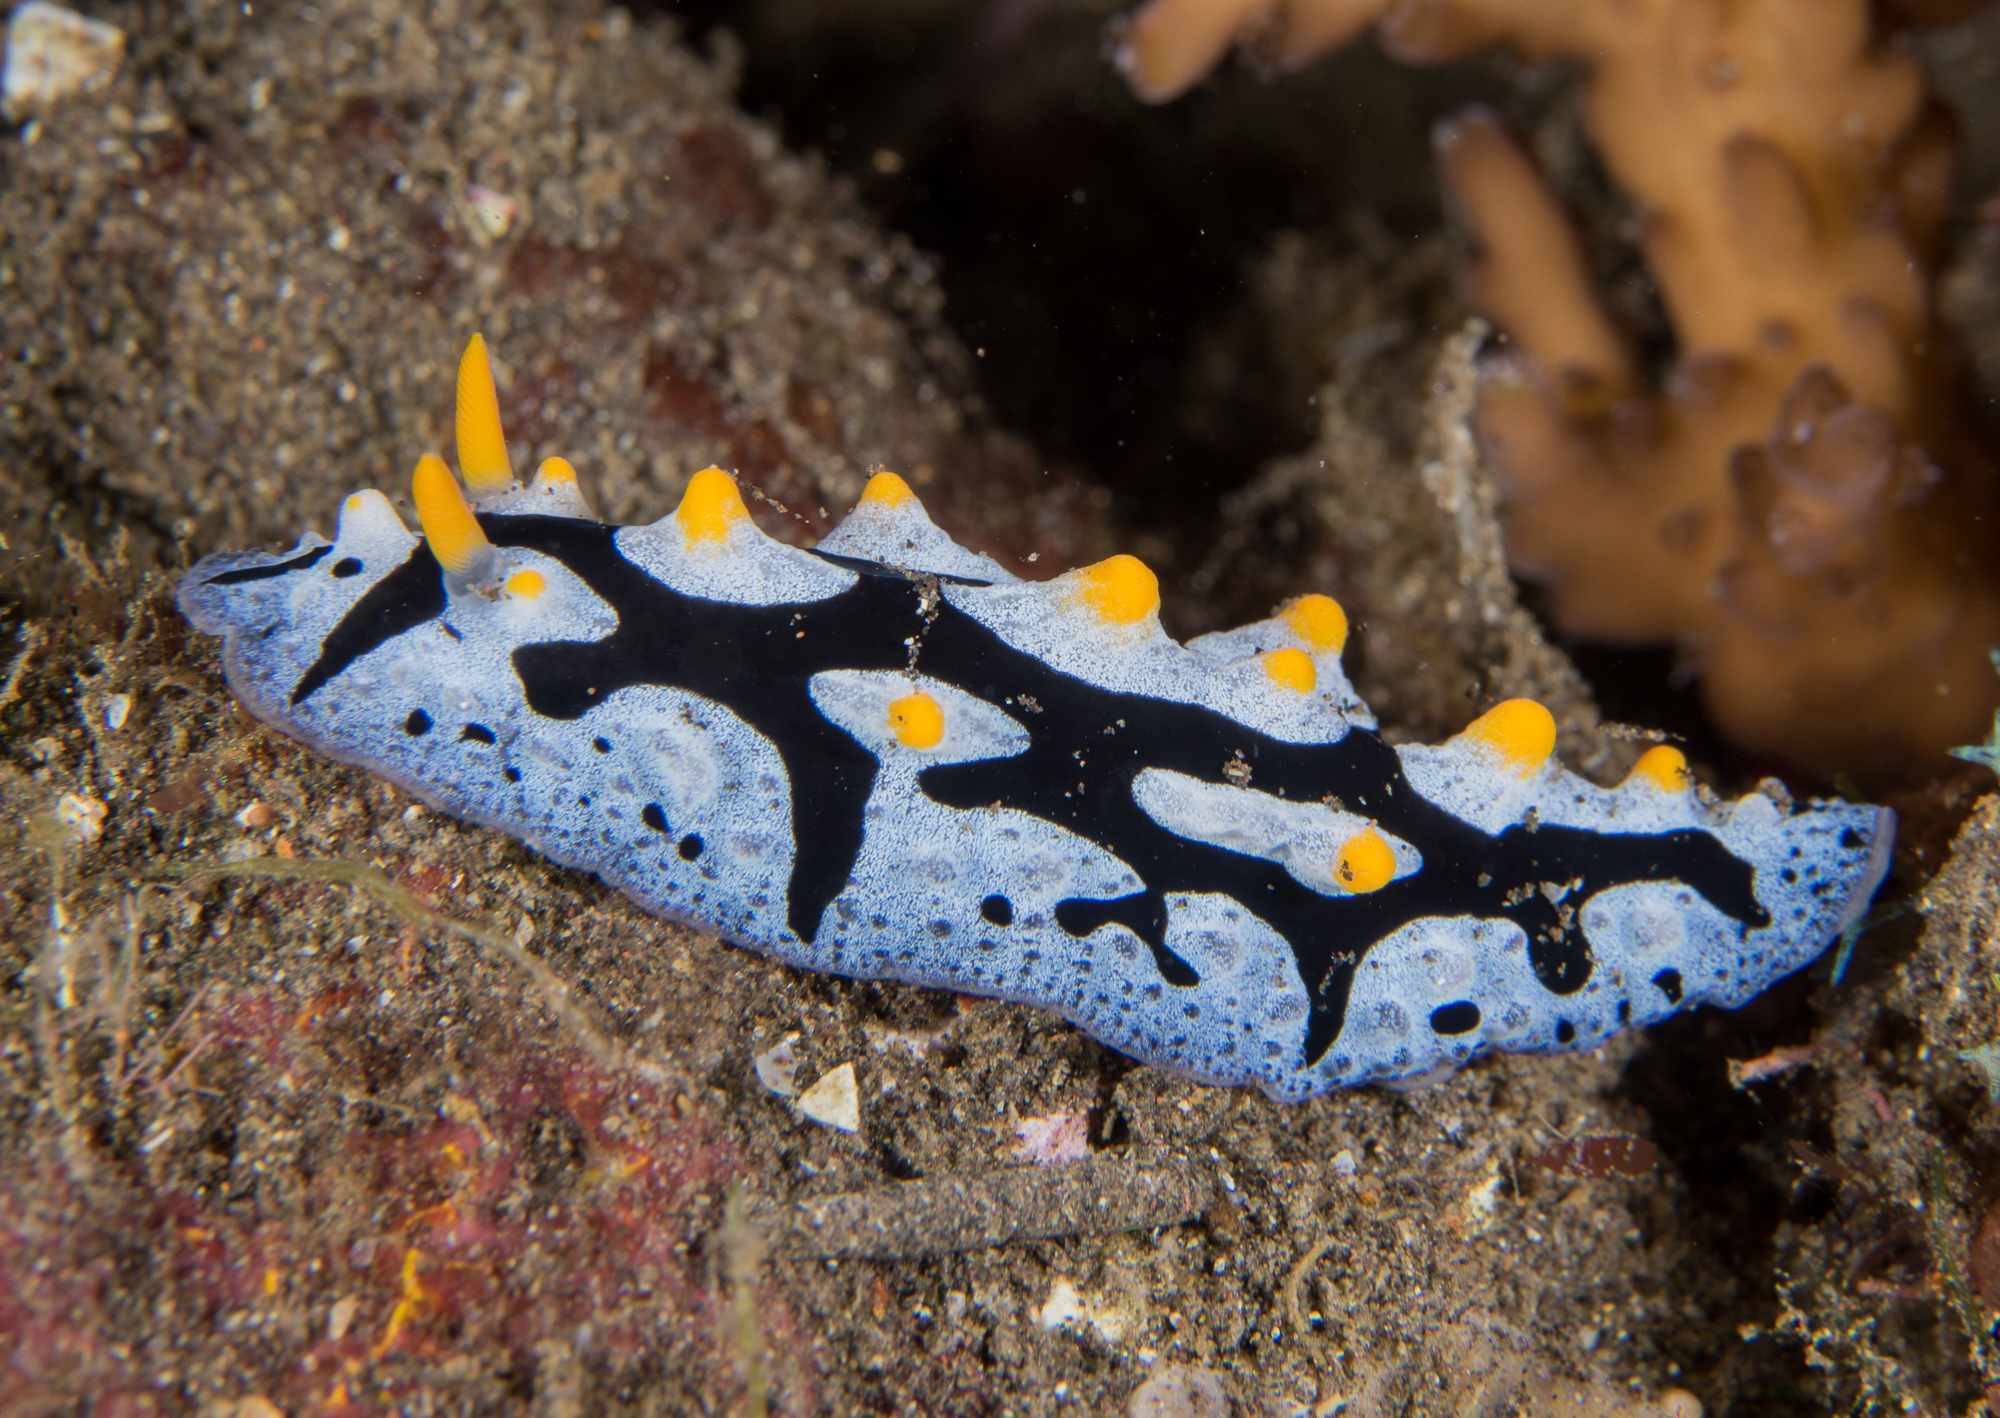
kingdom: Animalia
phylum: Mollusca
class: Gastropoda
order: Nudibranchia
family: Phyllidiidae
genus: Phyllidia
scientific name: Phyllidia picta
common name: Black-rayed phyllidia
